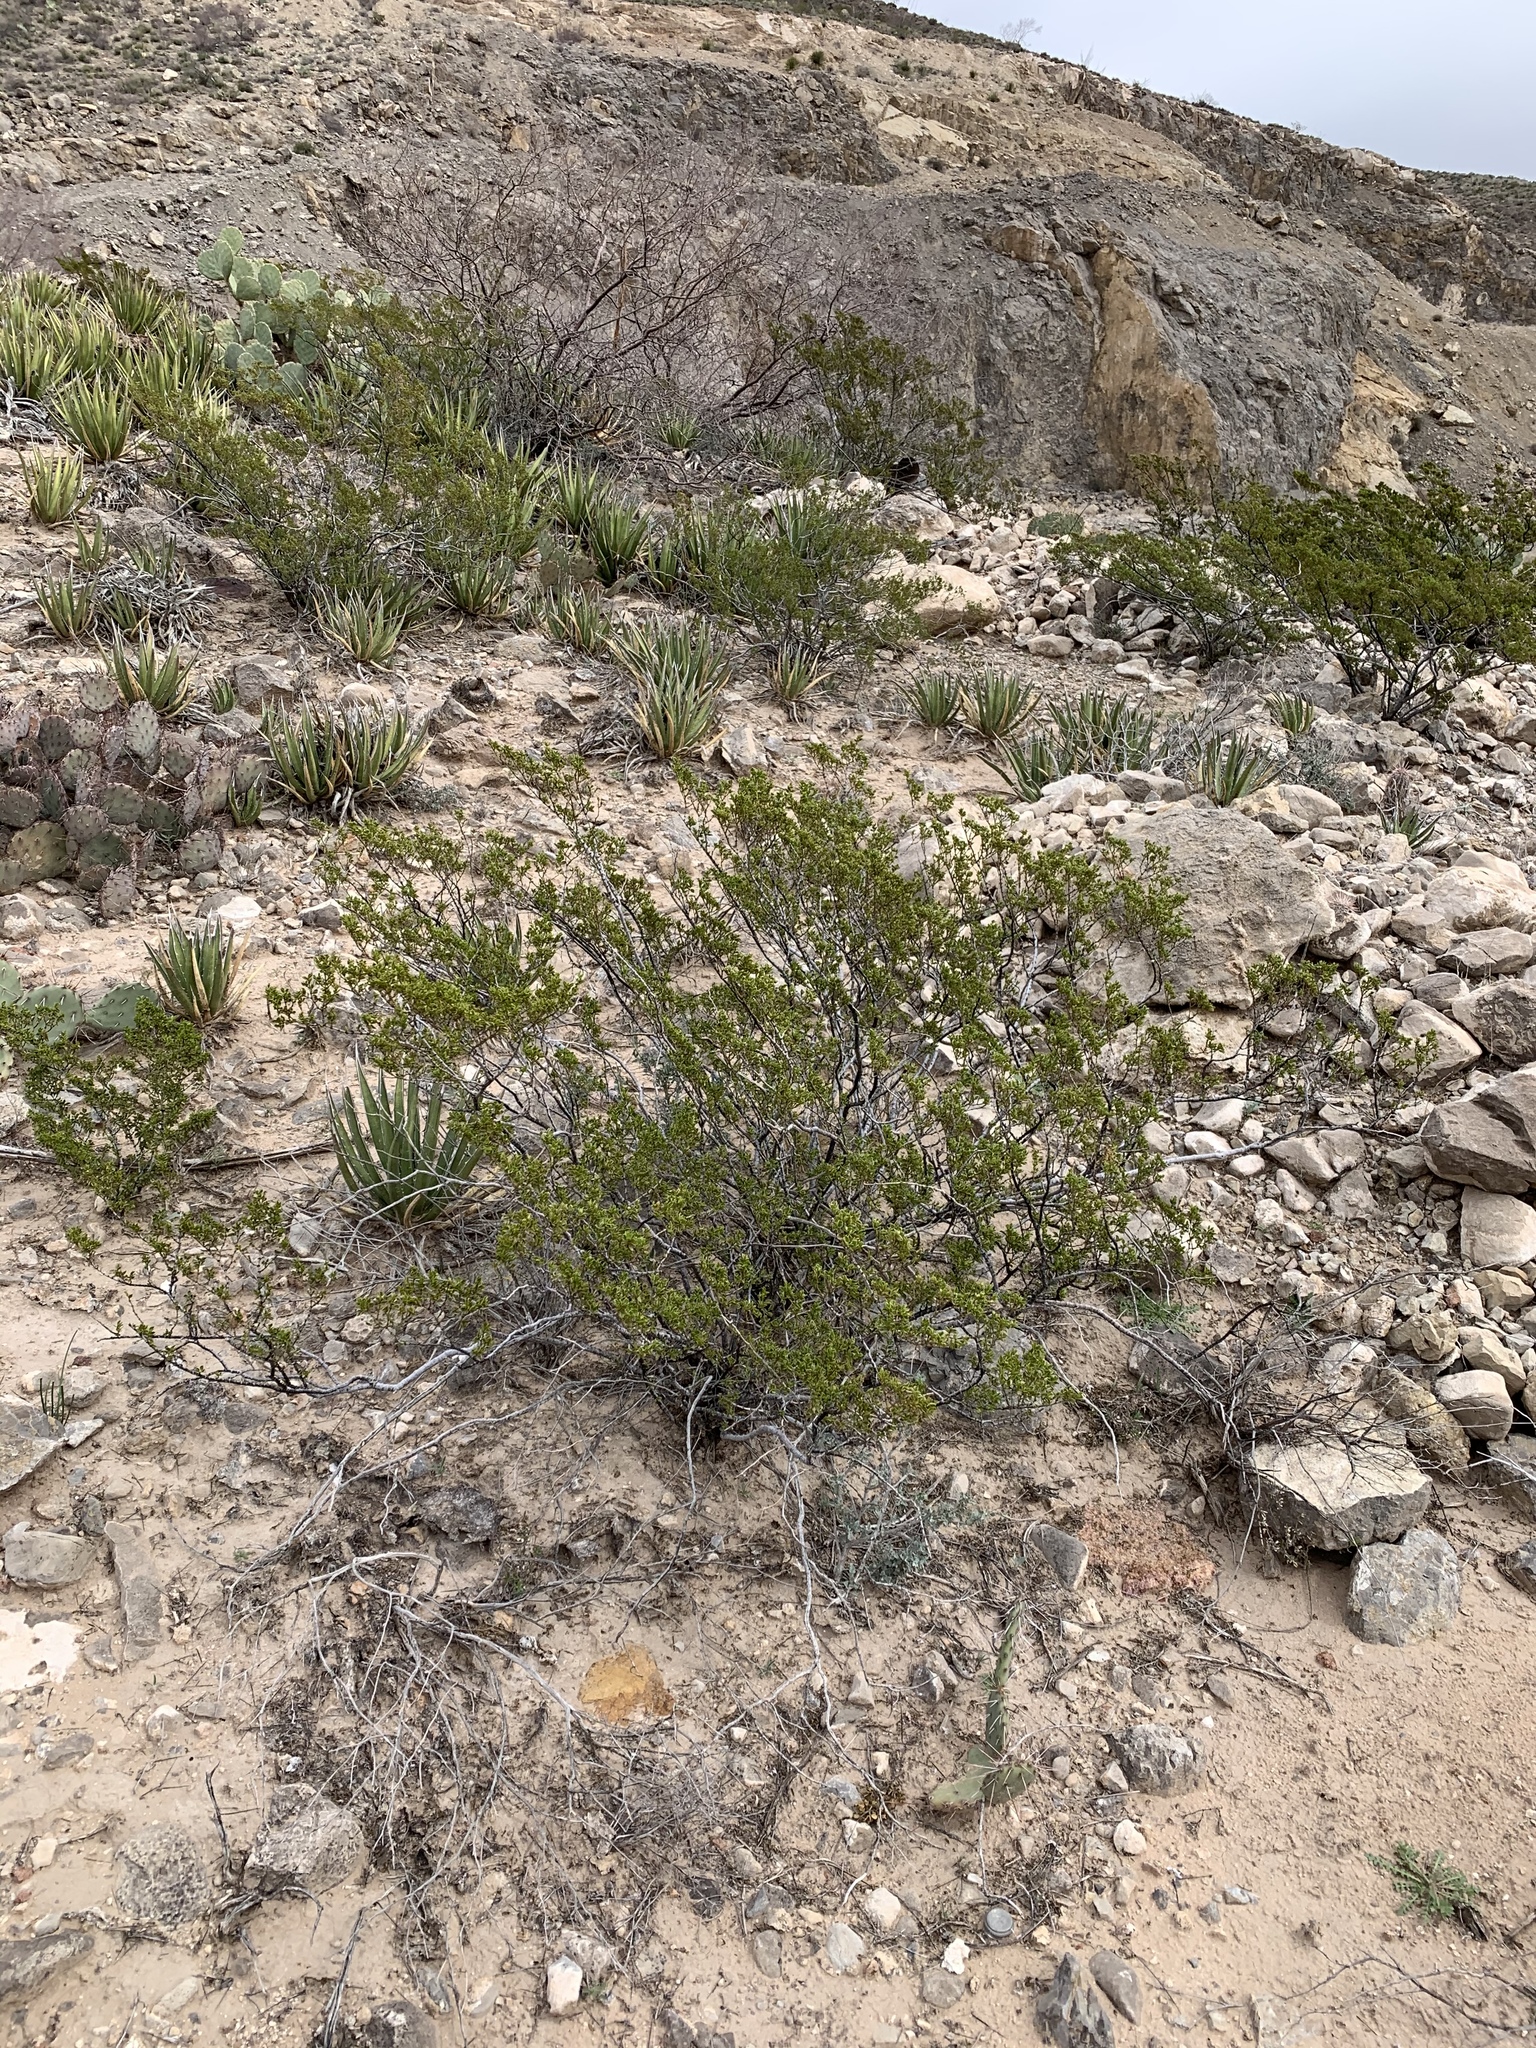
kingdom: Plantae
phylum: Tracheophyta
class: Magnoliopsida
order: Zygophyllales
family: Zygophyllaceae
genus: Larrea
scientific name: Larrea tridentata
